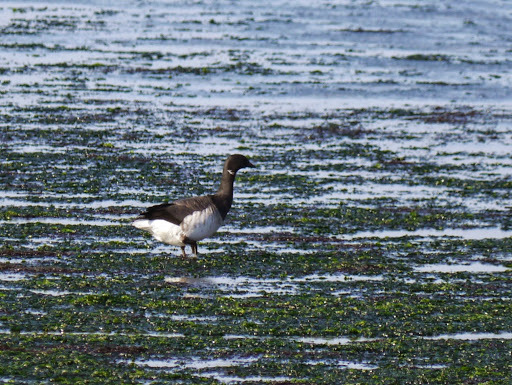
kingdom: Animalia
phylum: Chordata
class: Aves
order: Anseriformes
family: Anatidae
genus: Branta
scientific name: Branta bernicla
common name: Brant goose
